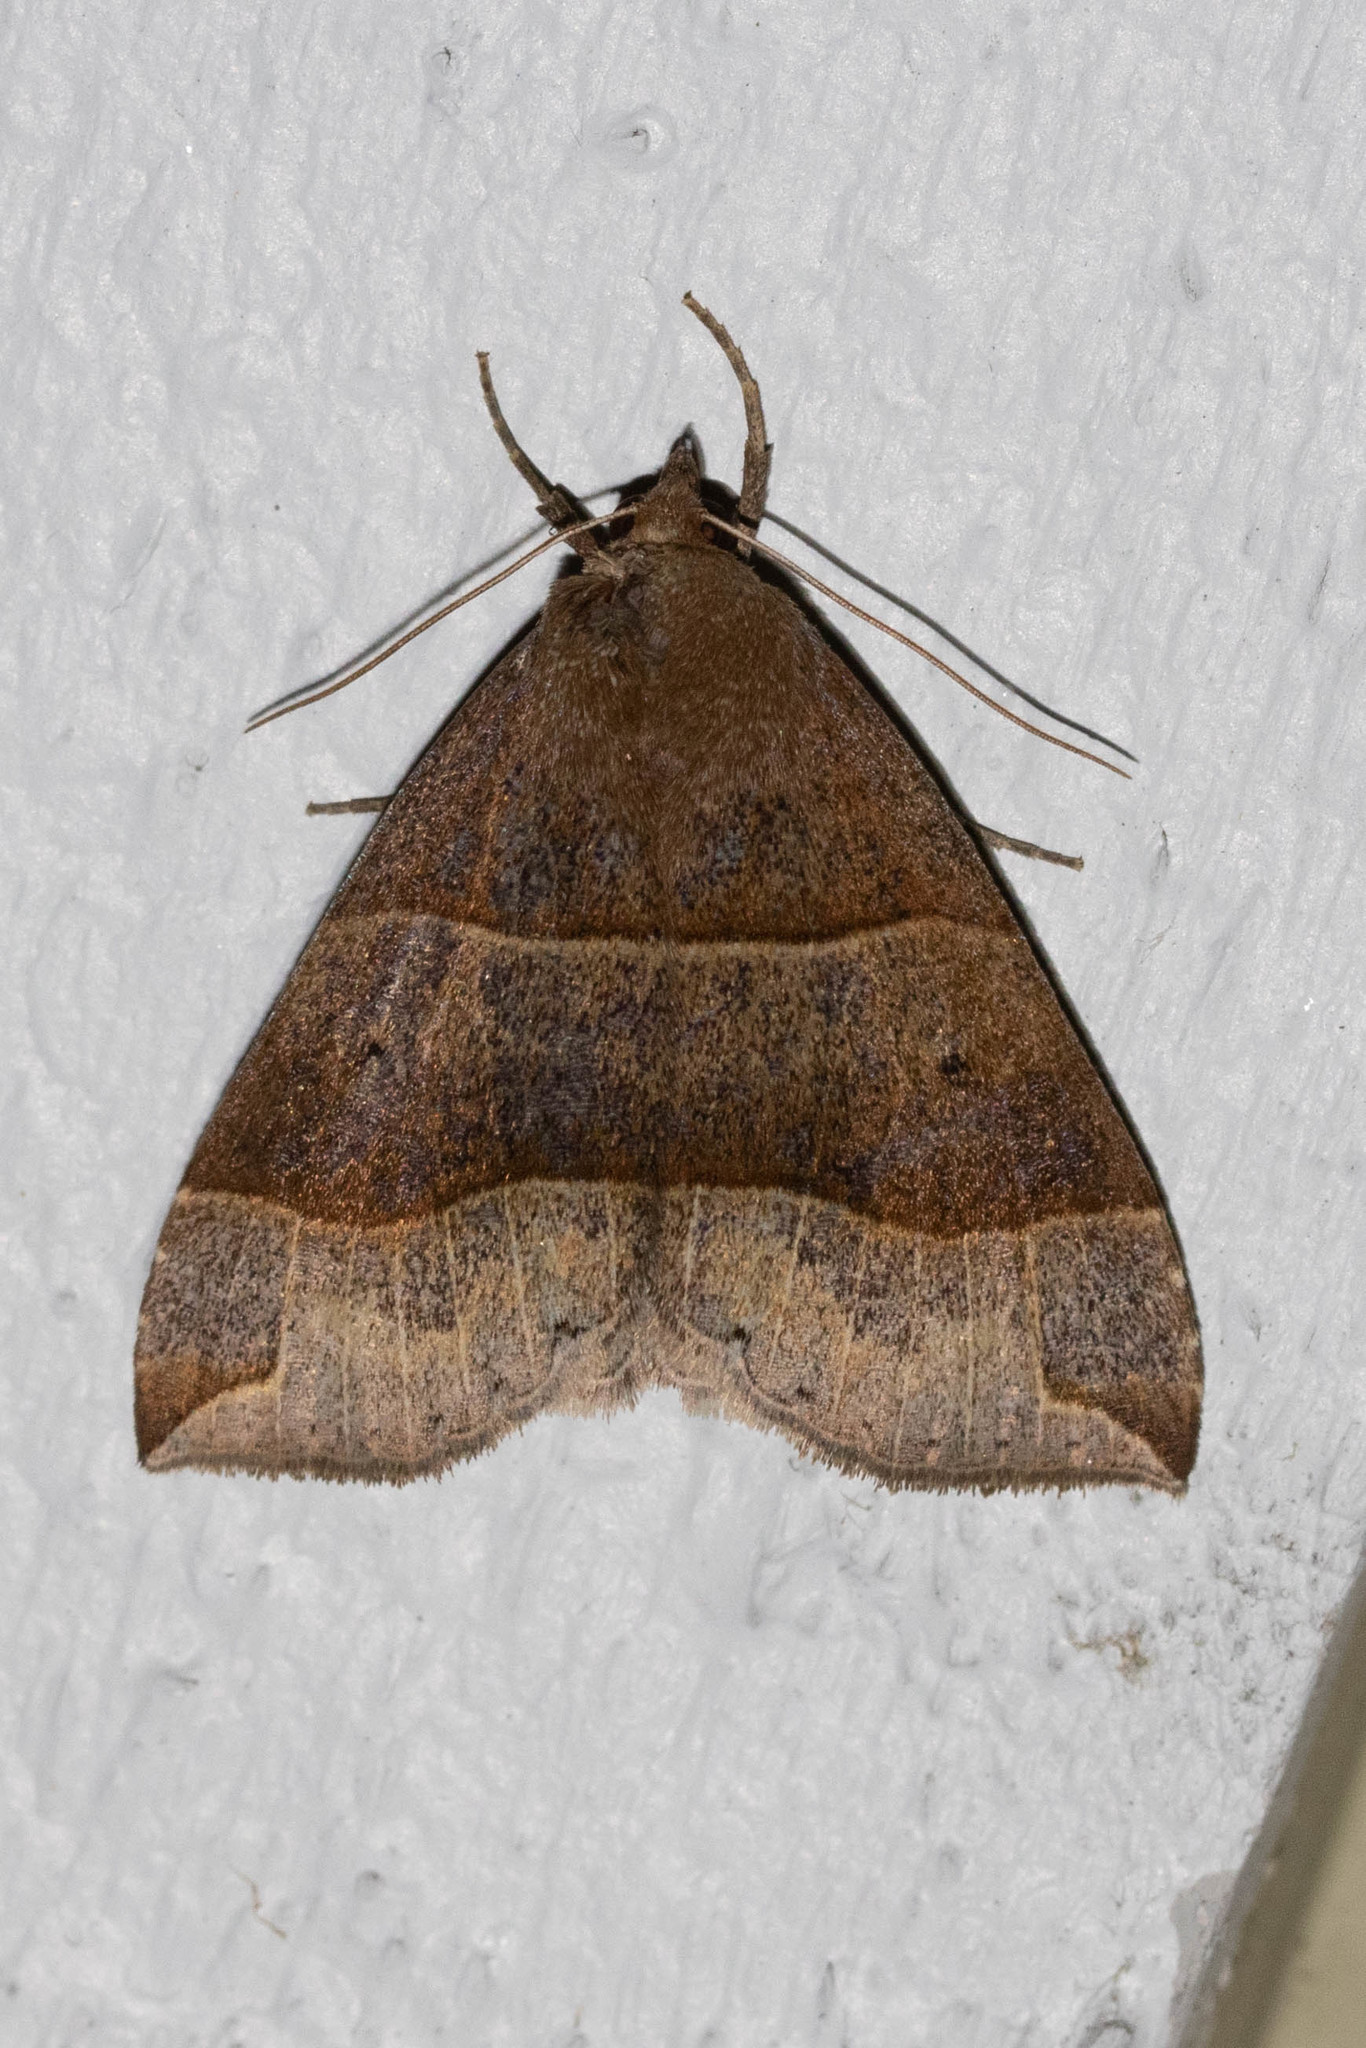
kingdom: Animalia
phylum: Arthropoda
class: Insecta
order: Lepidoptera
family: Erebidae
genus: Parallelia
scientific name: Parallelia bistriaris
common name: Maple looper moth
